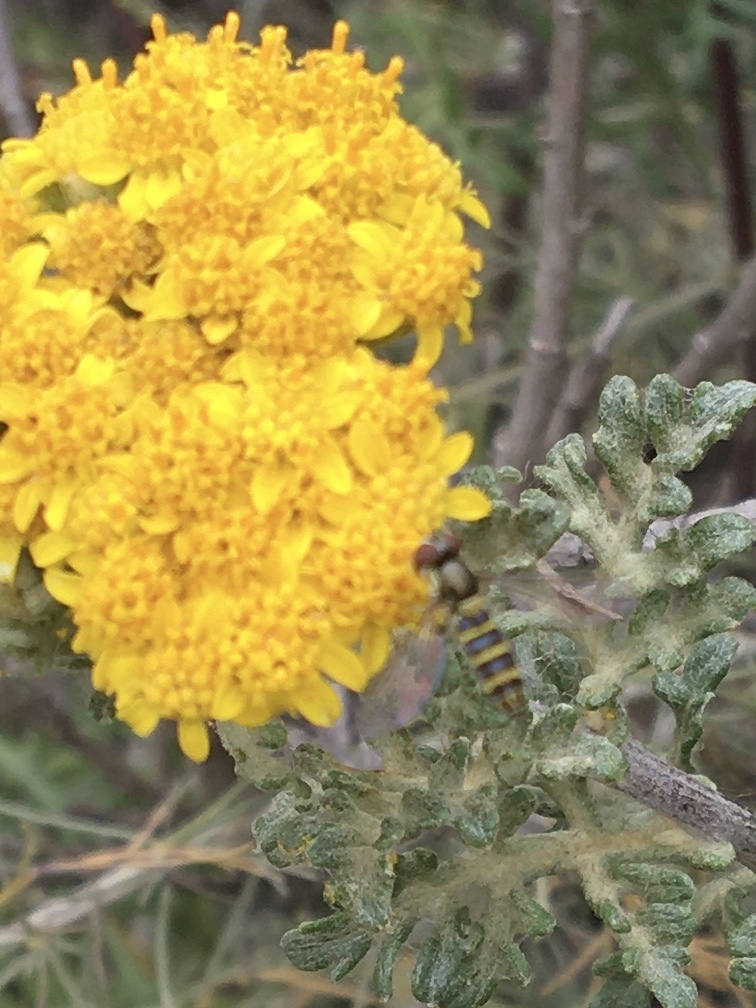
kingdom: Animalia
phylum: Arthropoda
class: Insecta
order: Diptera
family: Syrphidae
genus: Fazia
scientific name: Fazia micrura
